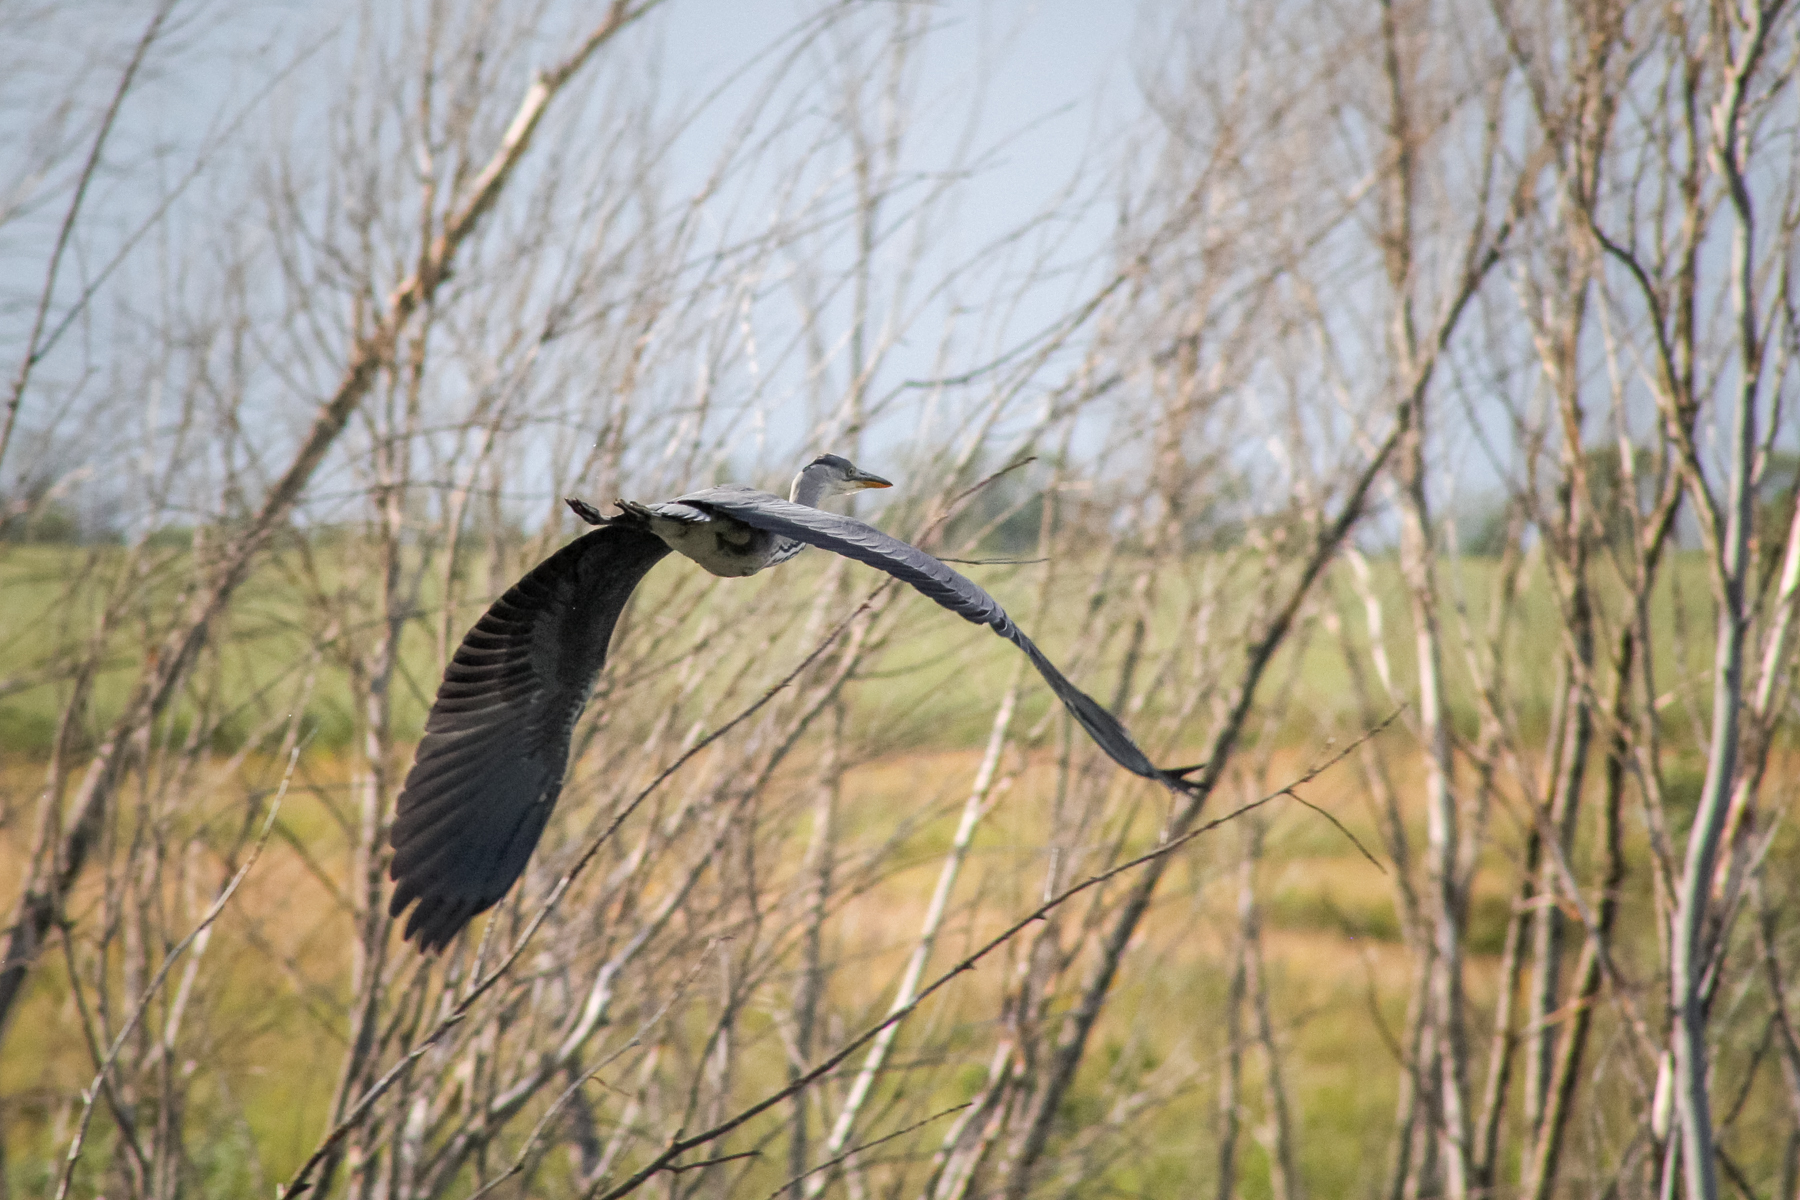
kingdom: Animalia
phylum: Chordata
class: Aves
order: Pelecaniformes
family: Ardeidae
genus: Ardea
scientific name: Ardea cinerea
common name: Grey heron
